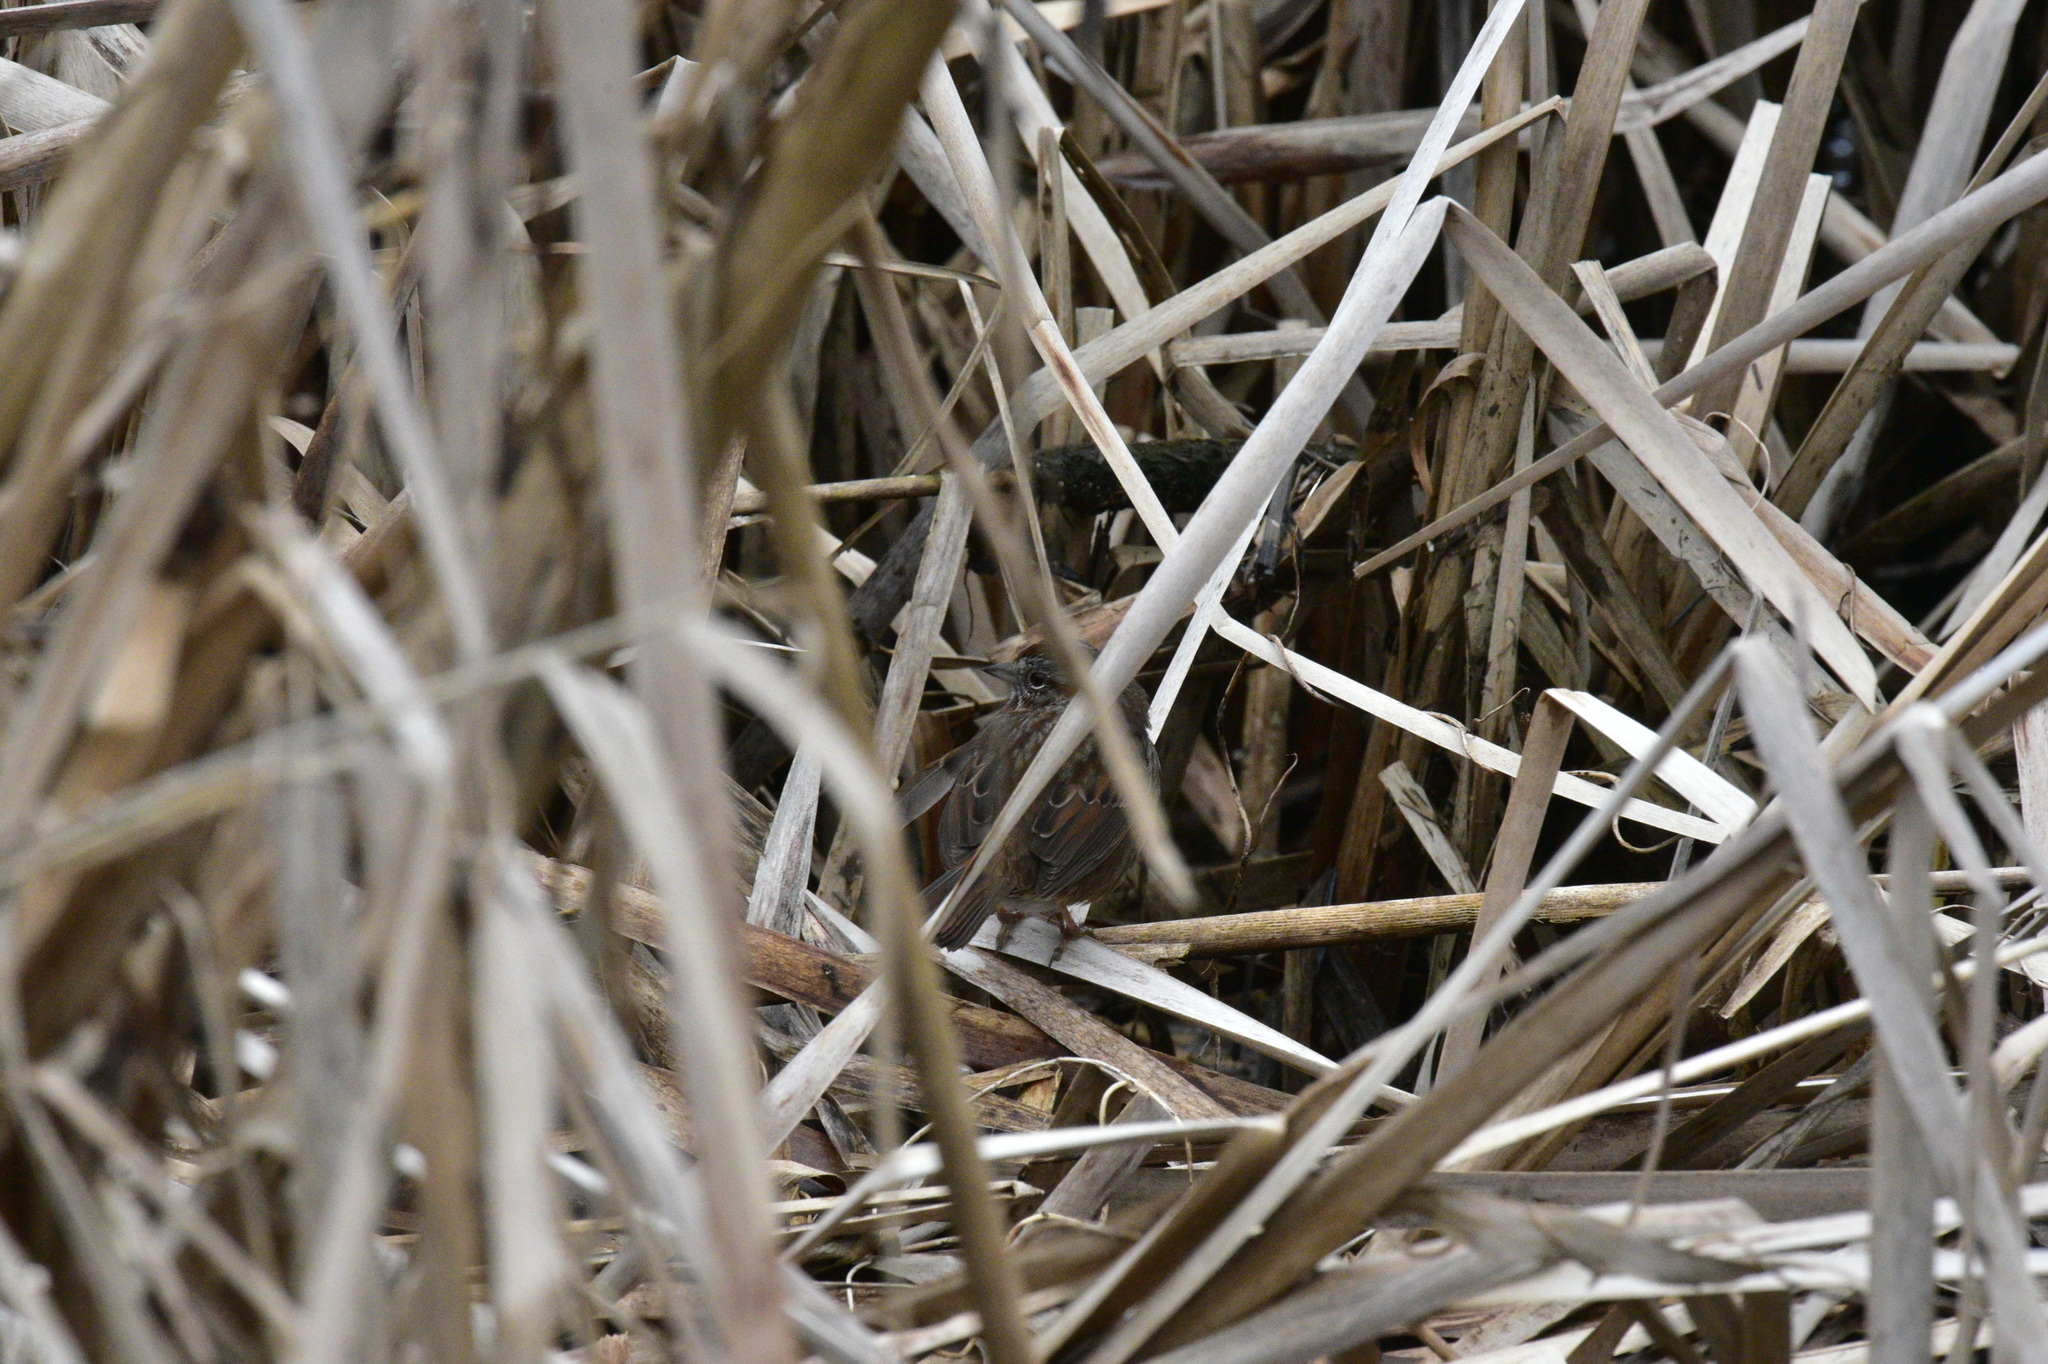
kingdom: Animalia
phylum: Chordata
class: Aves
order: Passeriformes
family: Passerellidae
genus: Melospiza
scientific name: Melospiza melodia
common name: Song sparrow
